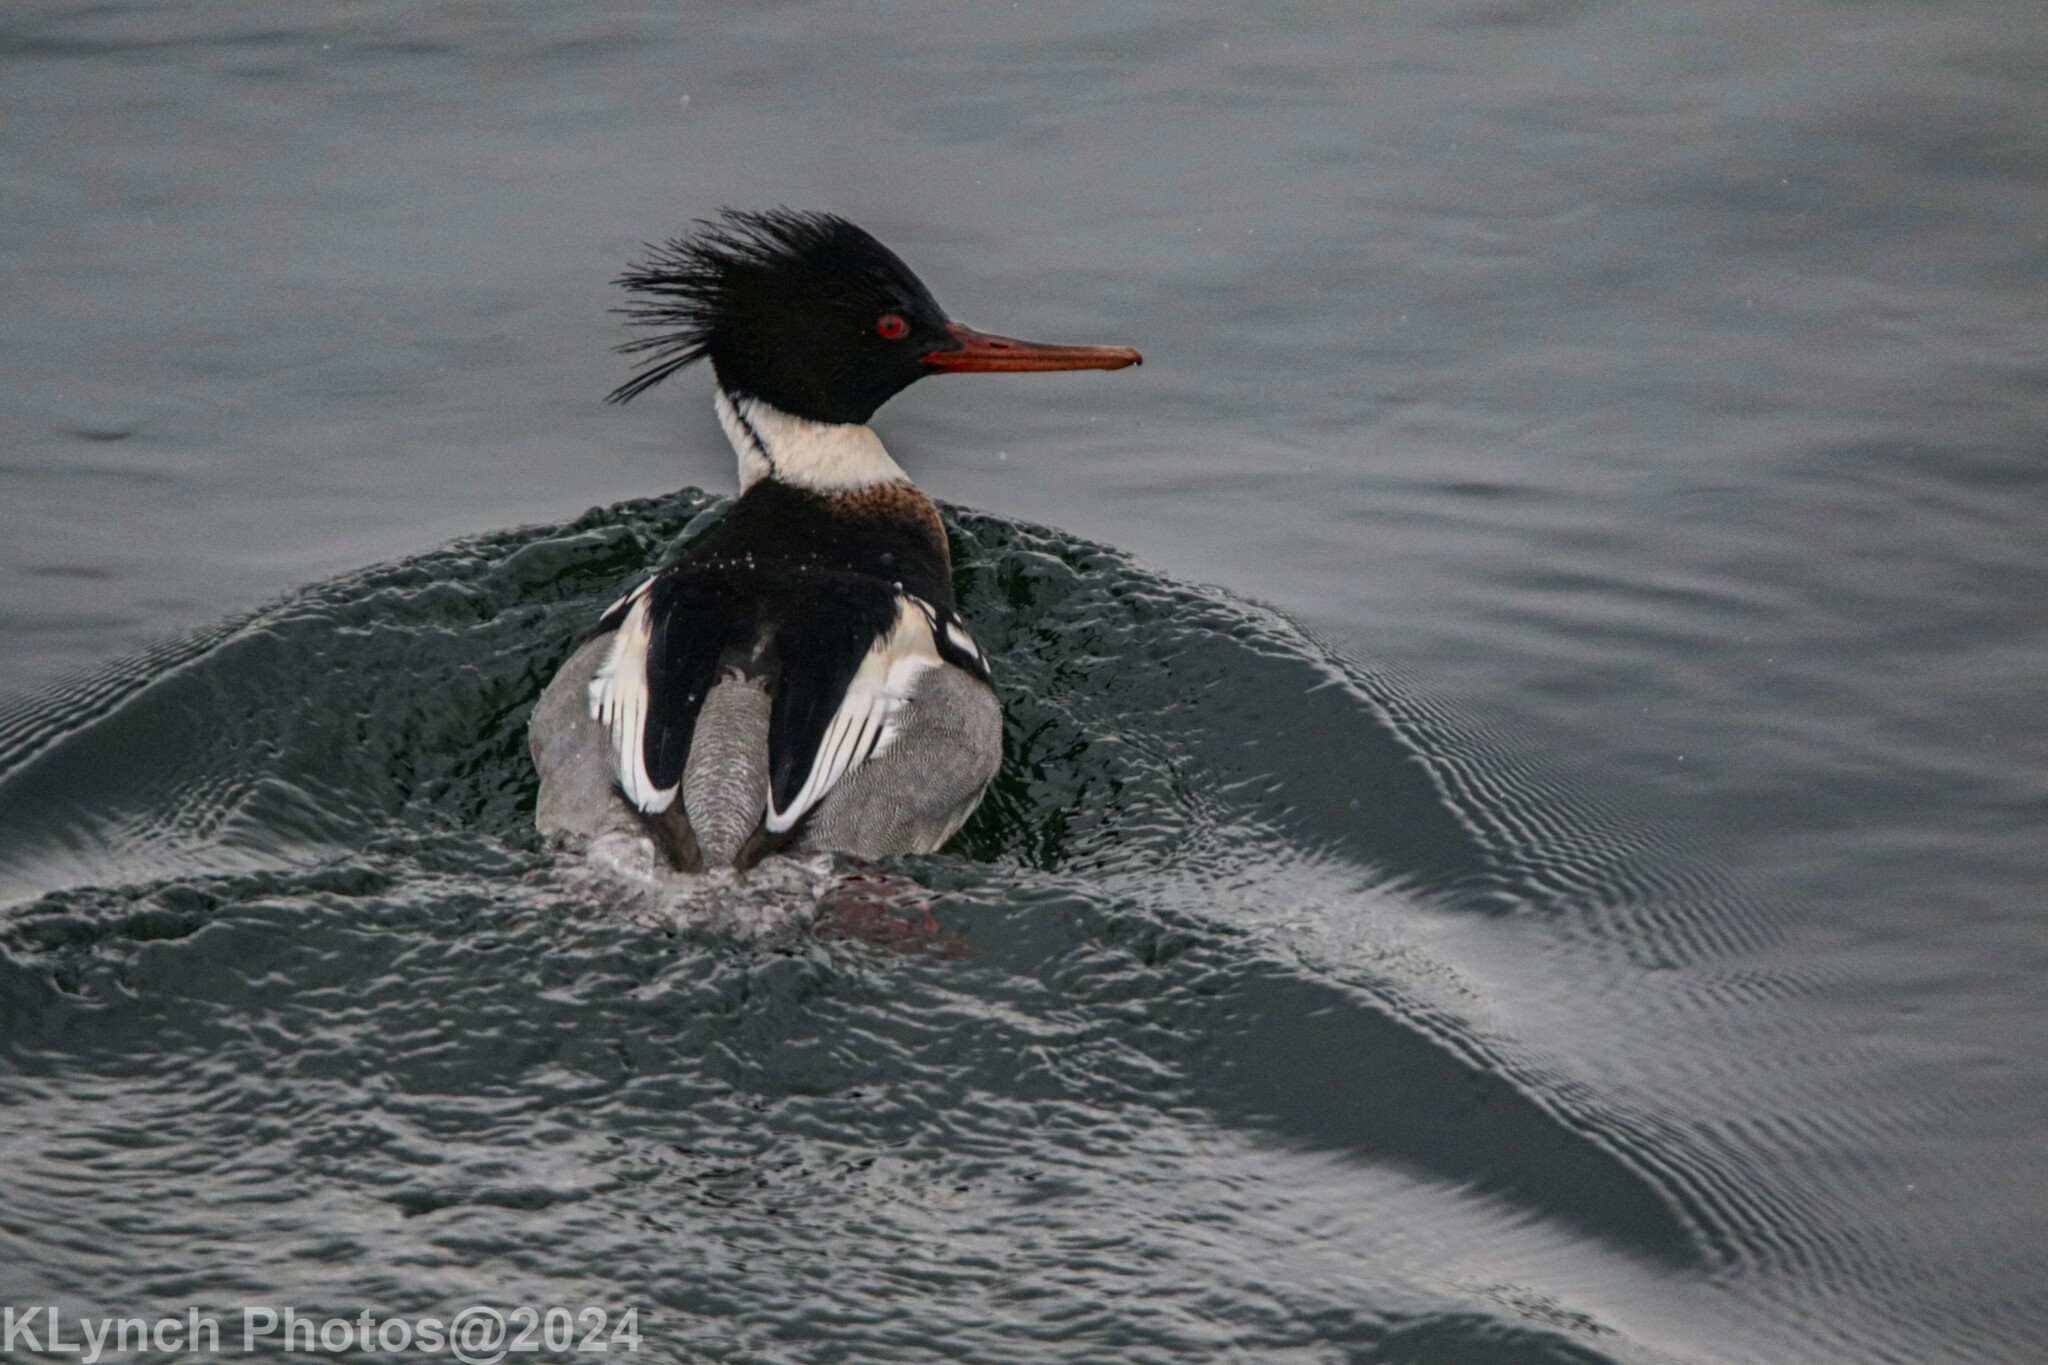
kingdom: Animalia
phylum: Chordata
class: Aves
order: Anseriformes
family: Anatidae
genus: Mergus
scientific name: Mergus serrator
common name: Red-breasted merganser
